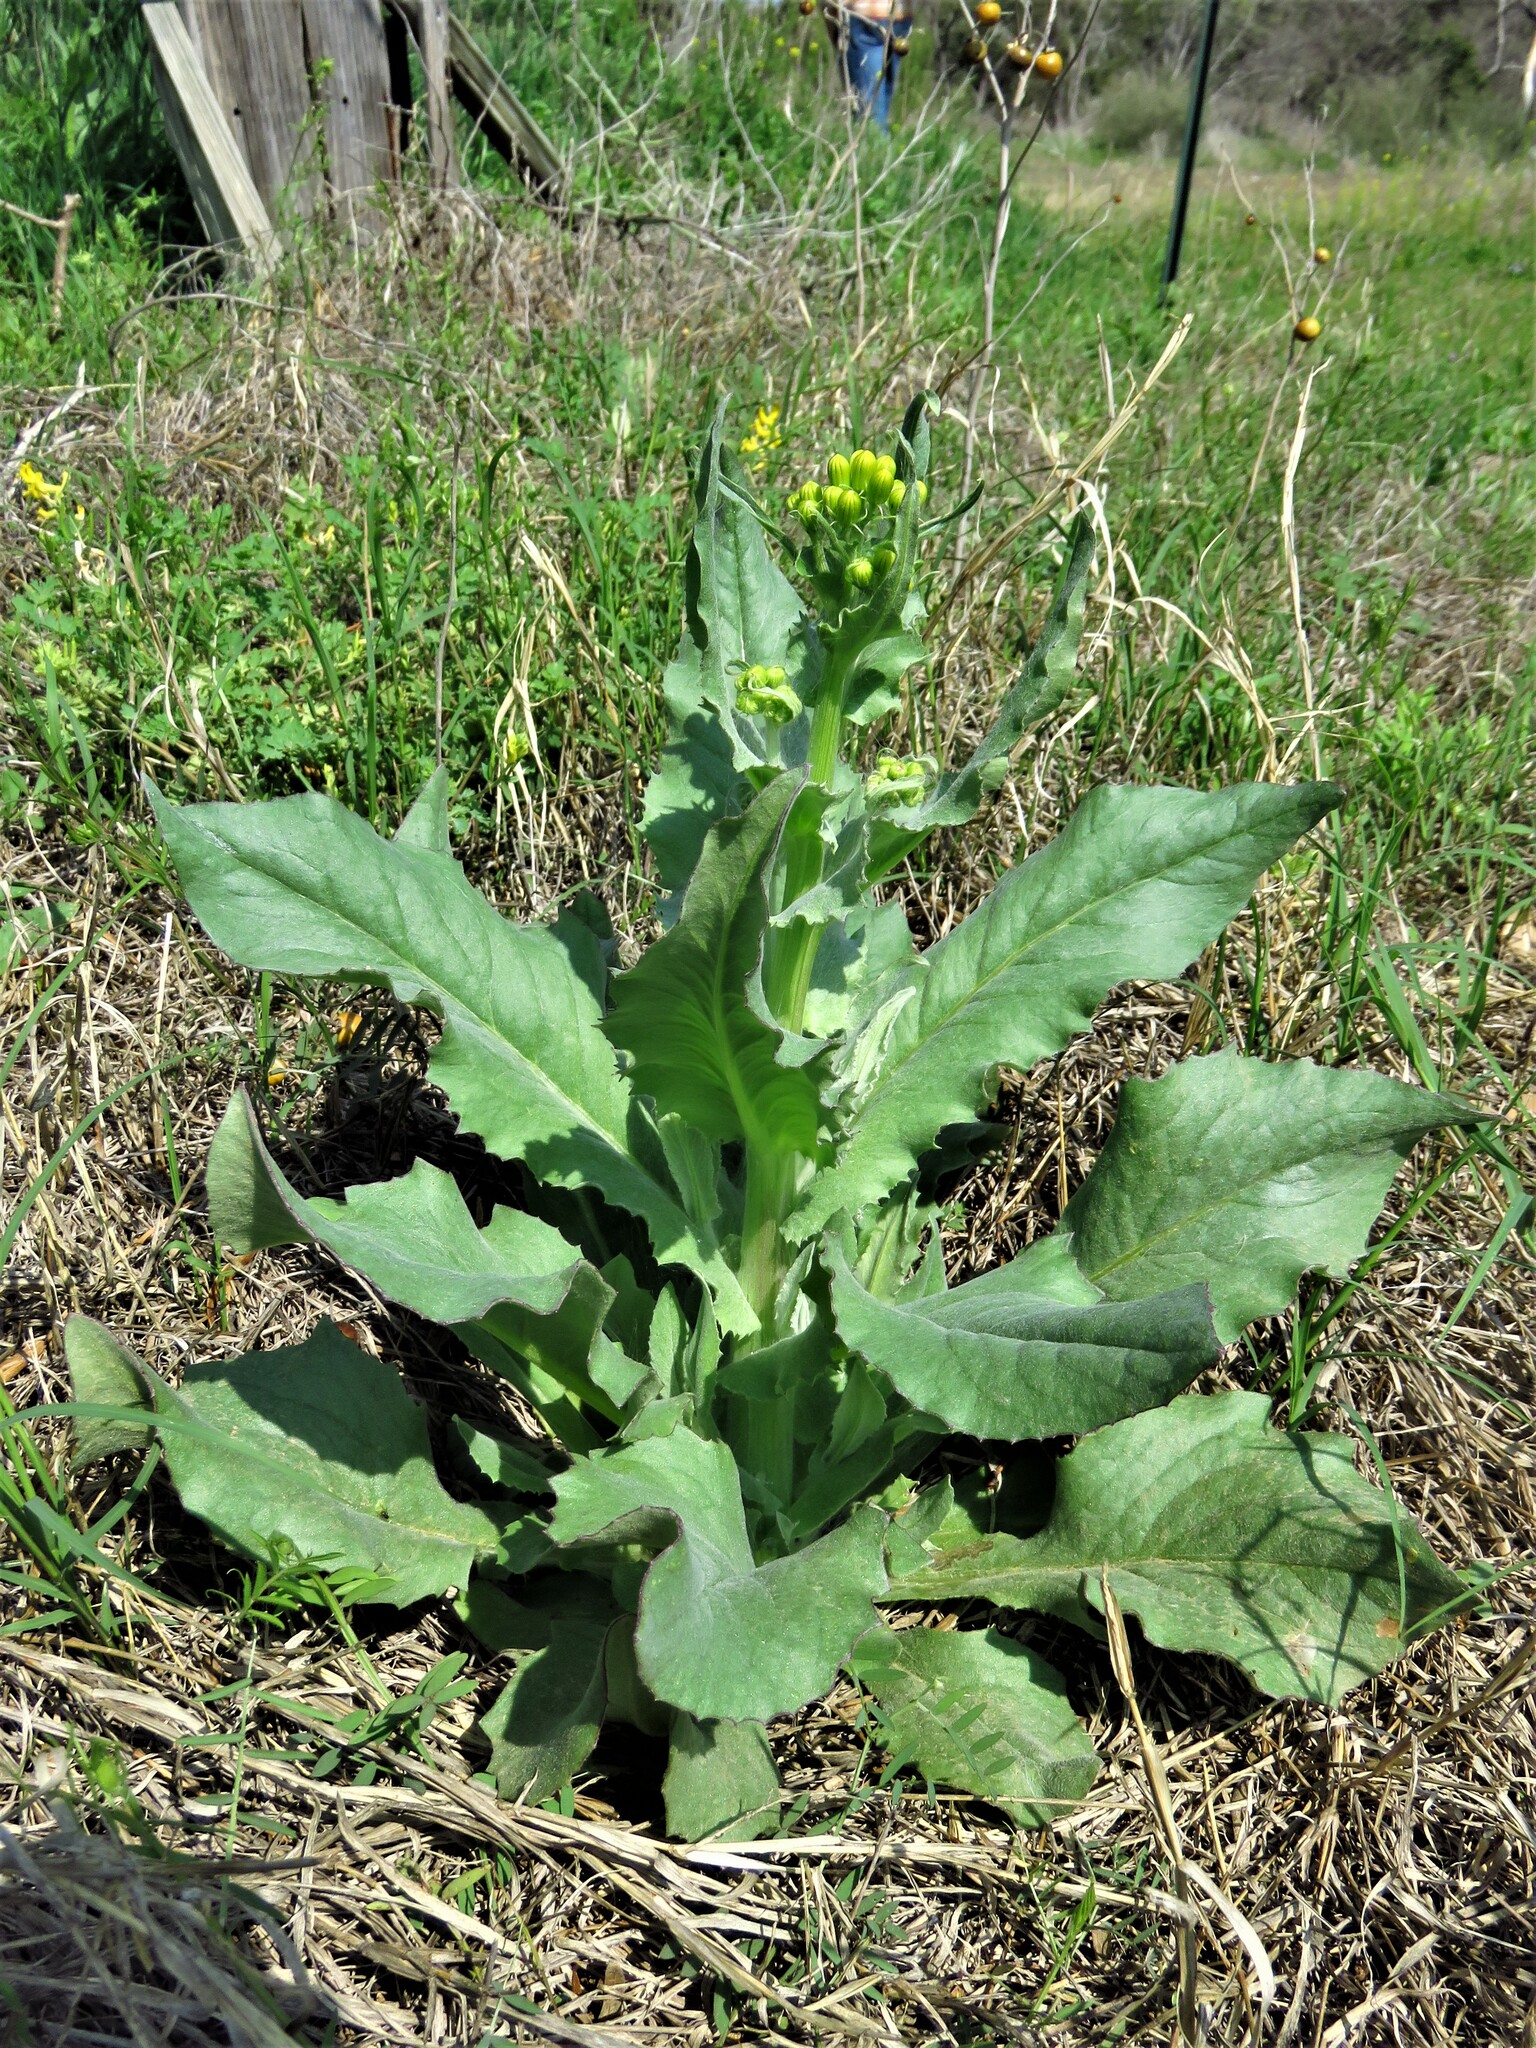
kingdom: Plantae
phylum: Tracheophyta
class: Magnoliopsida
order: Asterales
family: Asteraceae
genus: Senecio
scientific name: Senecio ampullaceus
